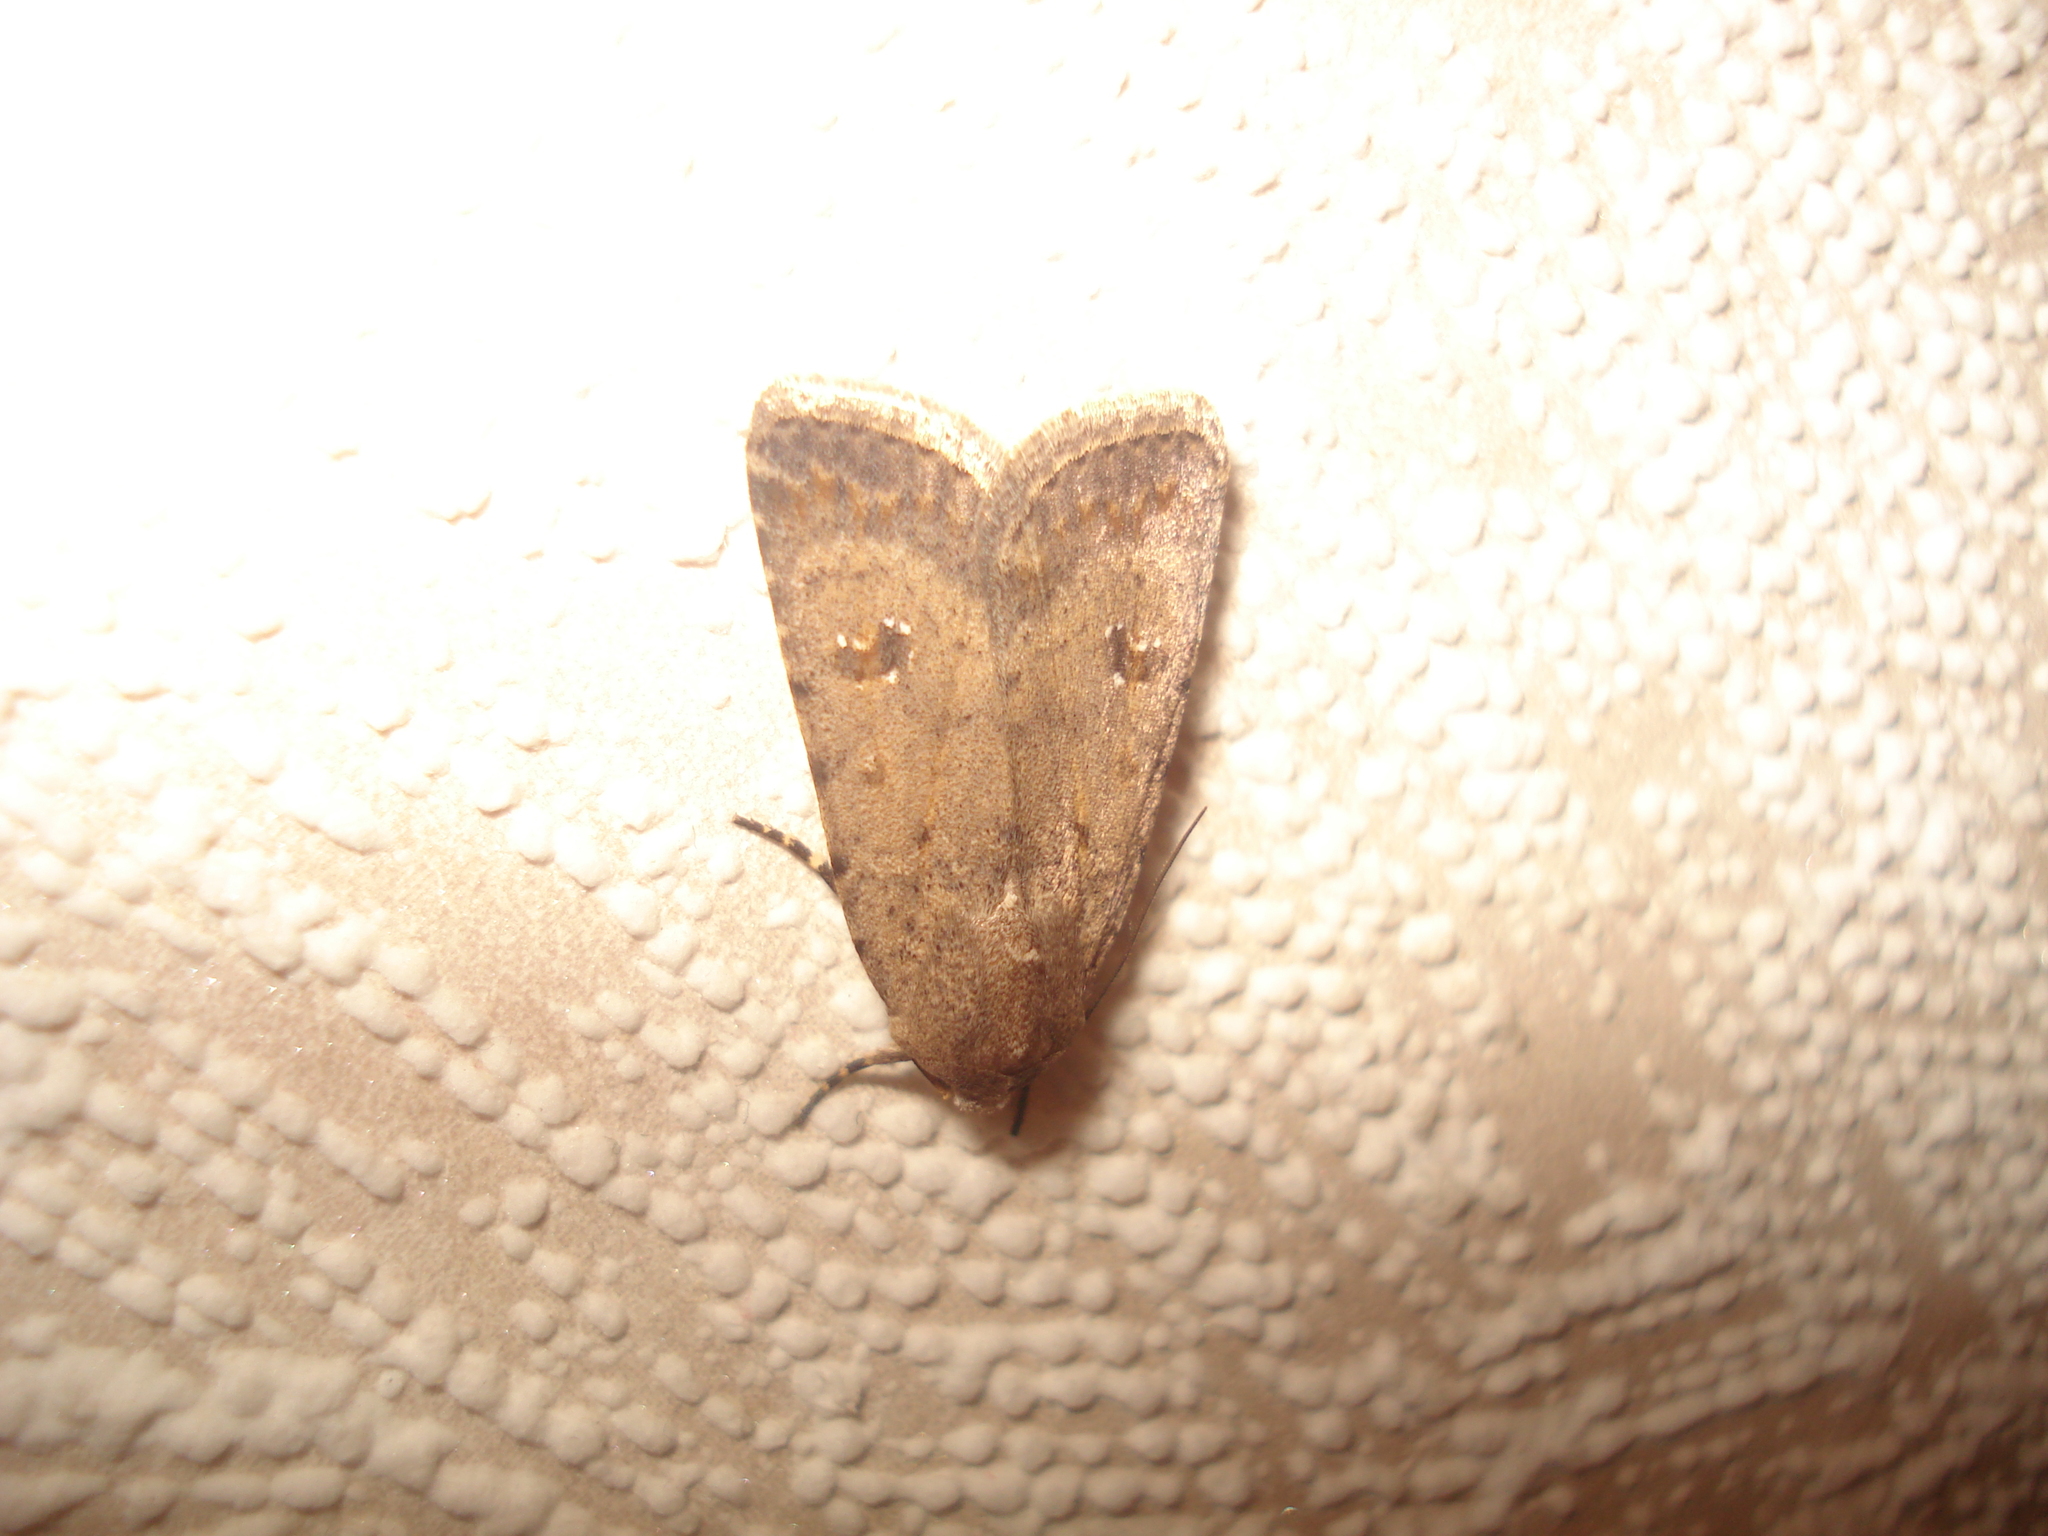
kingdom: Animalia
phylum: Arthropoda
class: Insecta
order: Lepidoptera
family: Noctuidae
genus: Caradrina
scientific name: Caradrina clavipalpis
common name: Pale mottled willow
